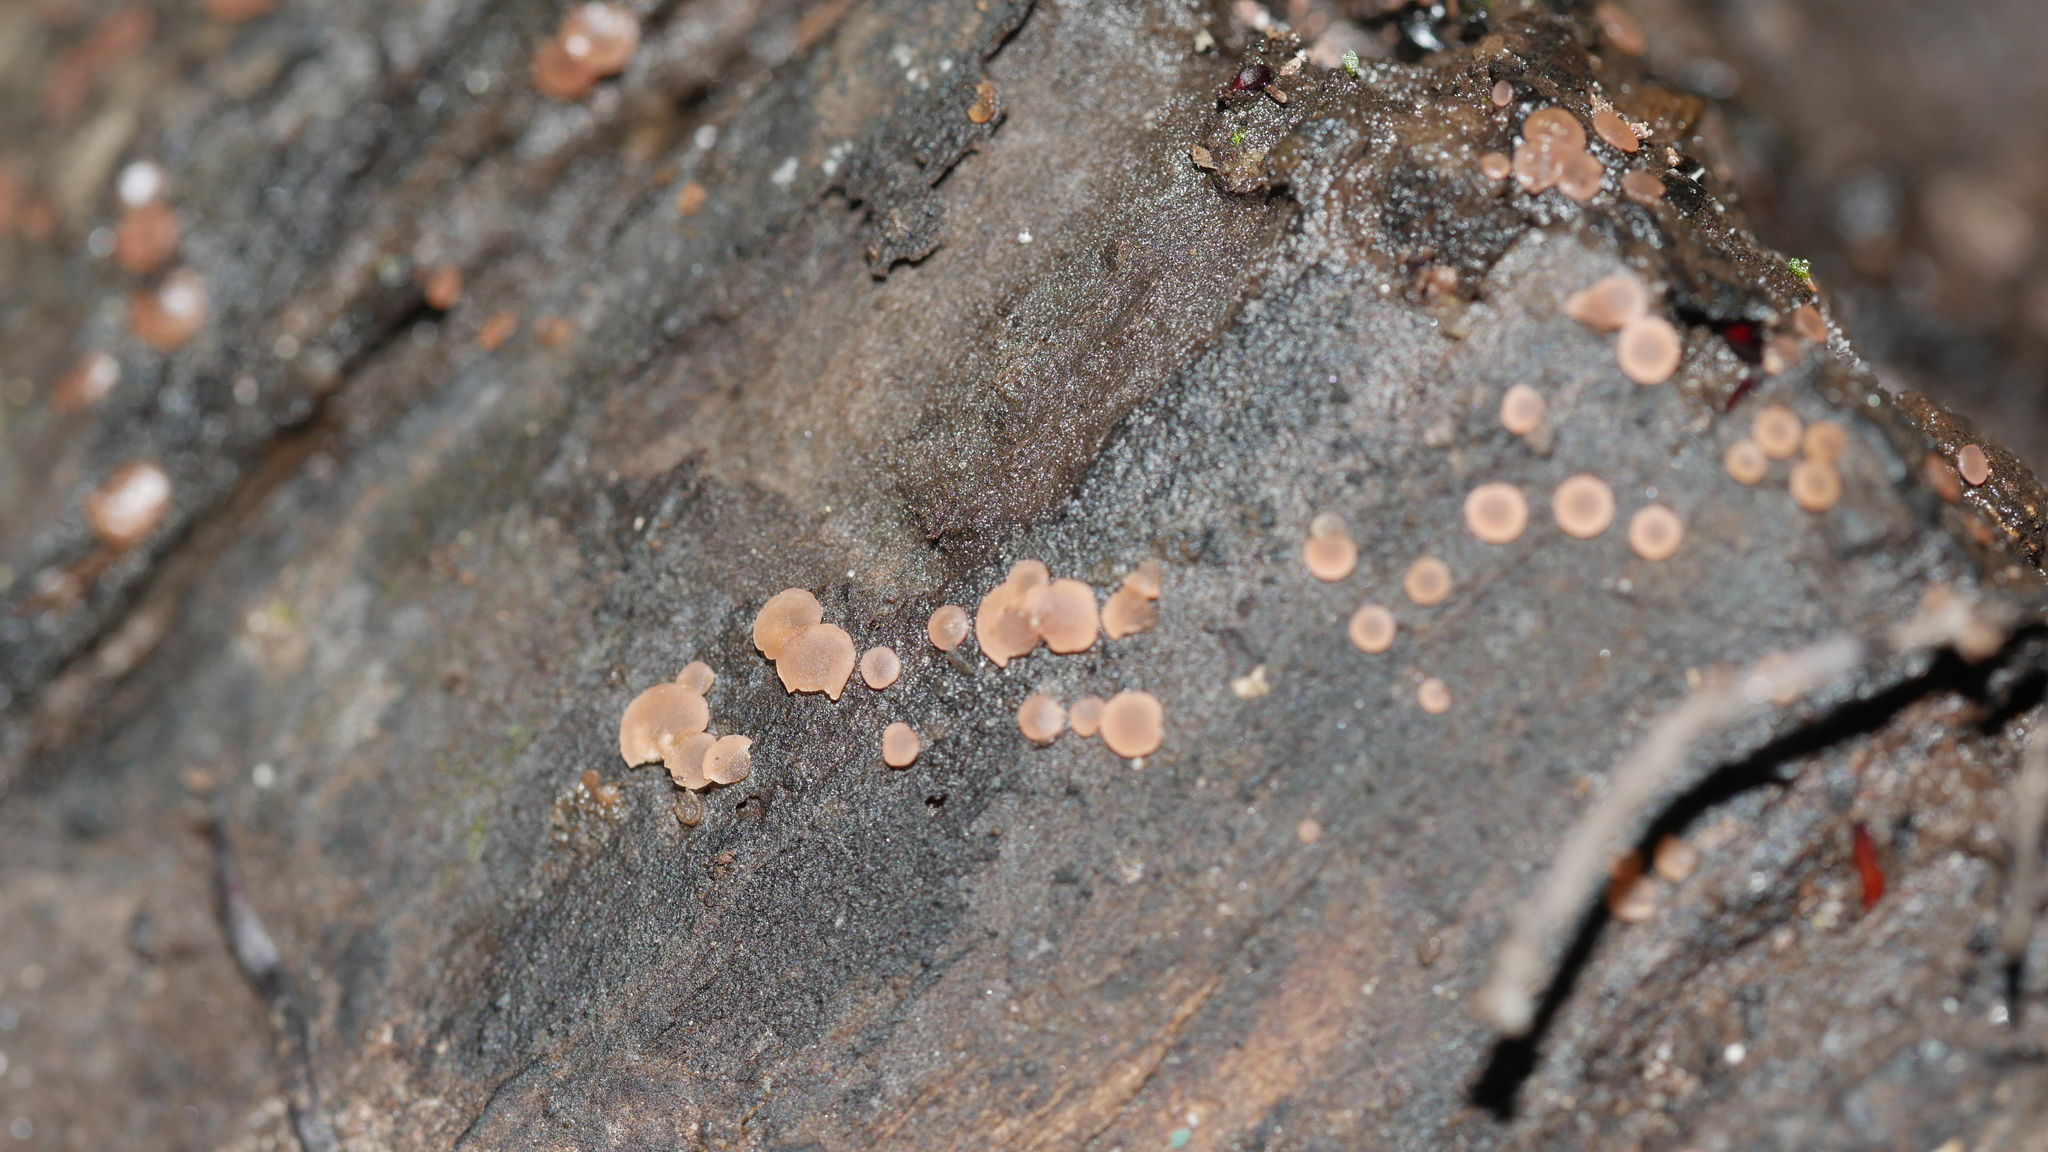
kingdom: Fungi
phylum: Ascomycota
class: Orbiliomycetes
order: Orbiliales
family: Orbiliaceae
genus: Orbilia
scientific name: Orbilia
